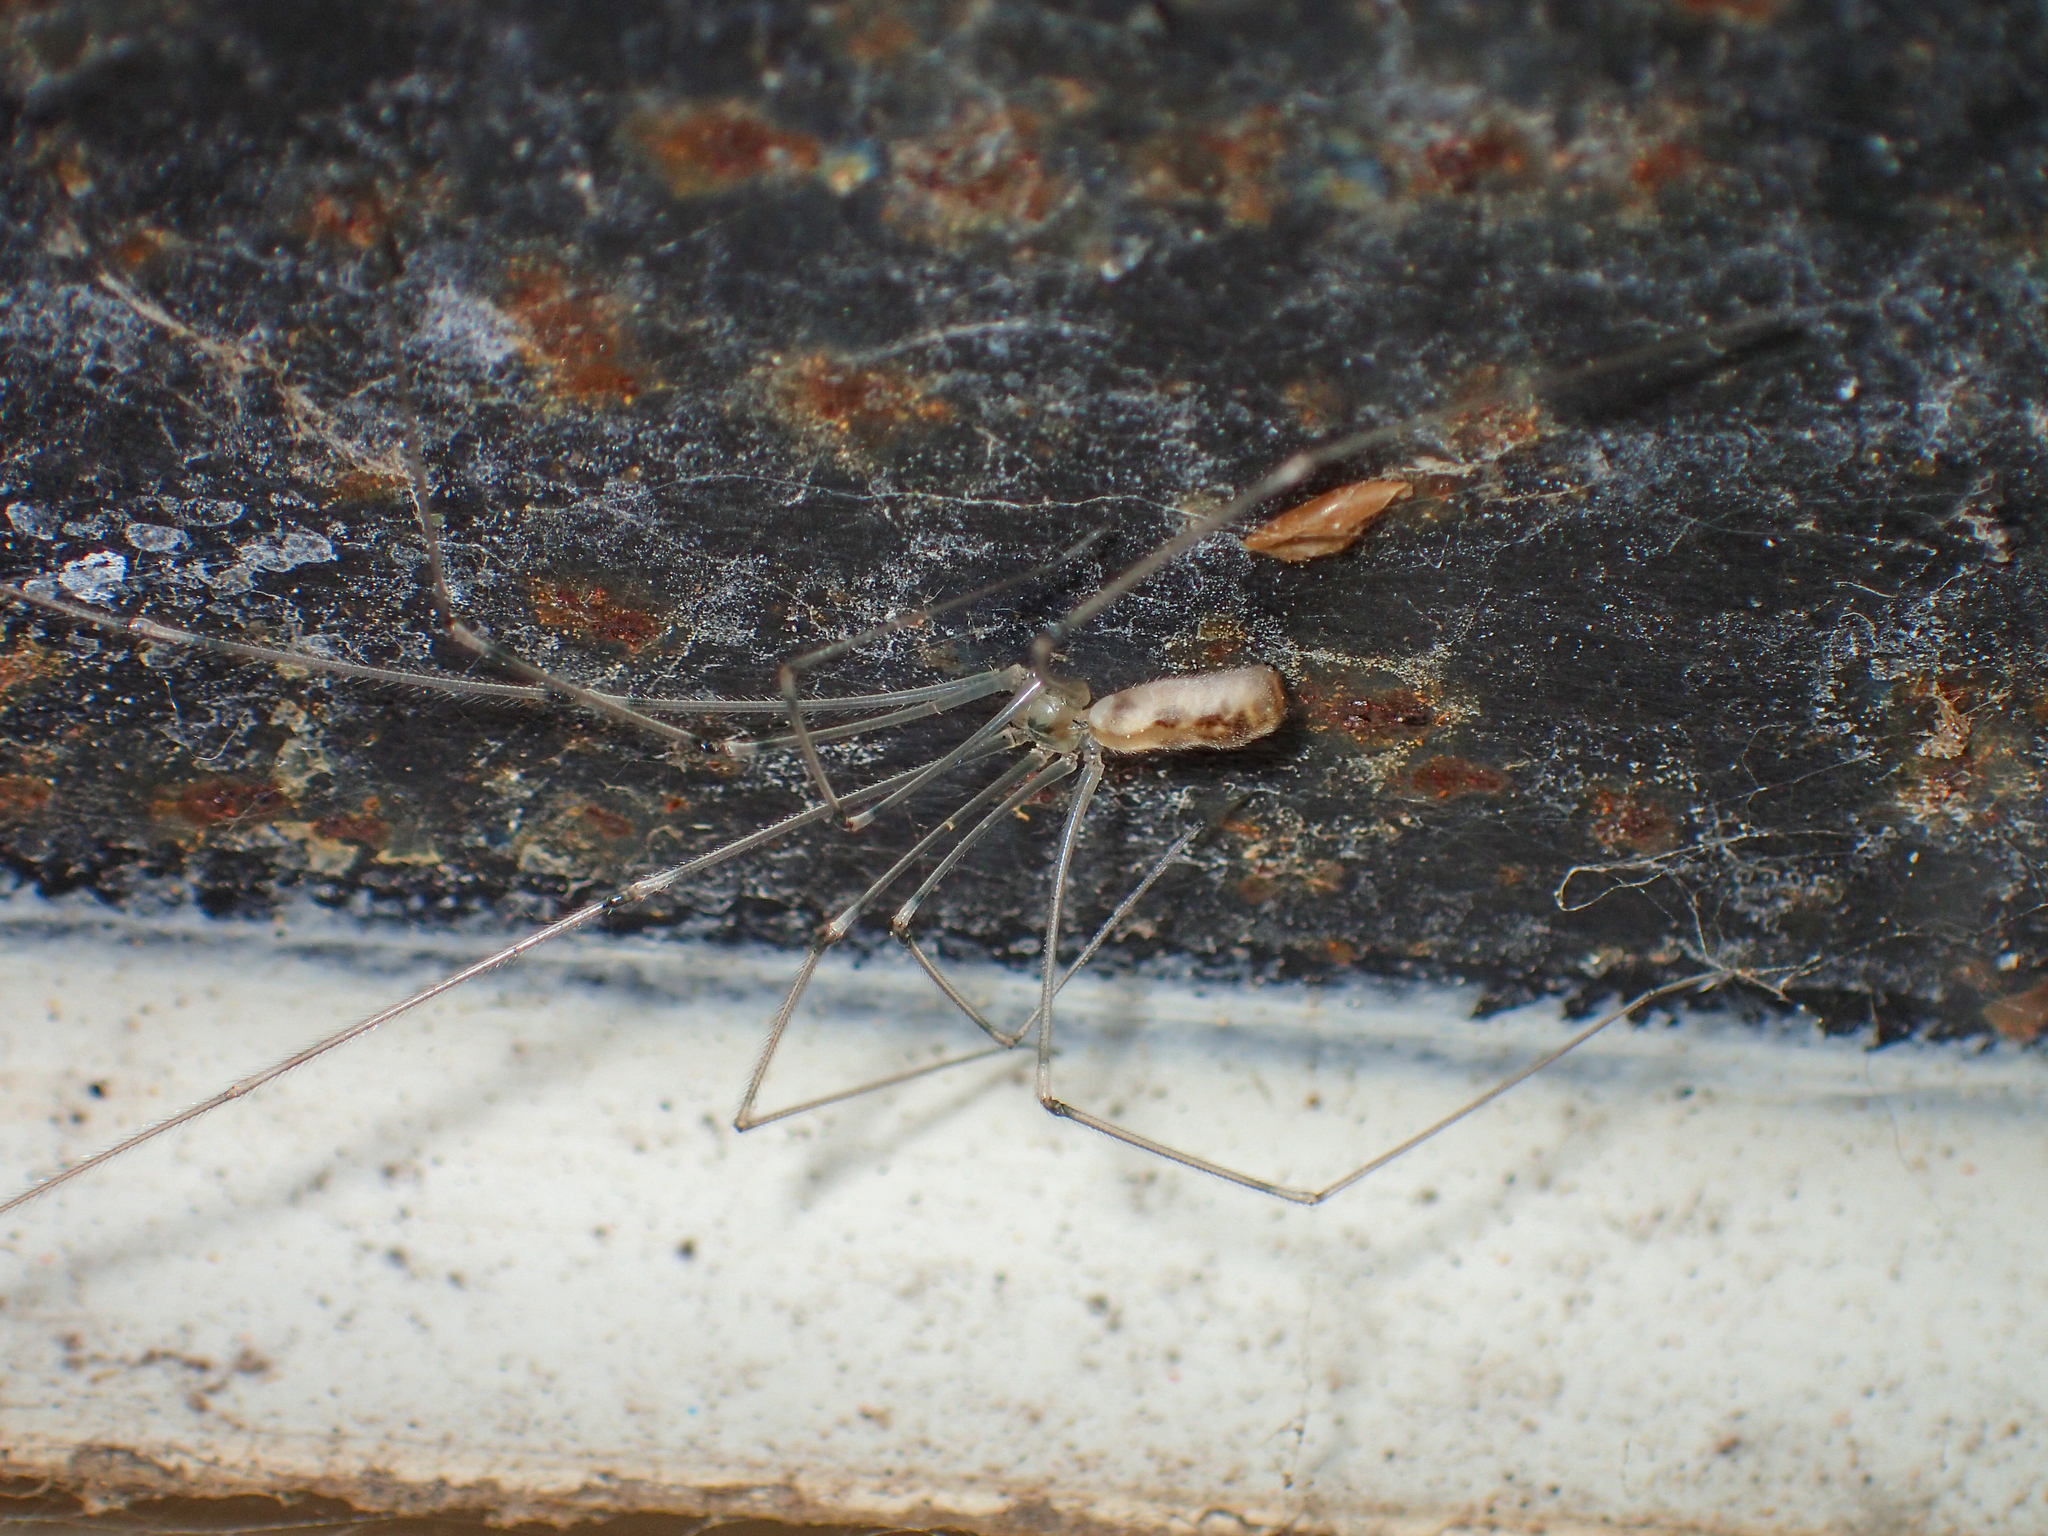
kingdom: Animalia
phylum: Arthropoda
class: Arachnida
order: Araneae
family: Pholcidae
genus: Pholcus
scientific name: Pholcus phalangioides
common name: Longbodied cellar spider
